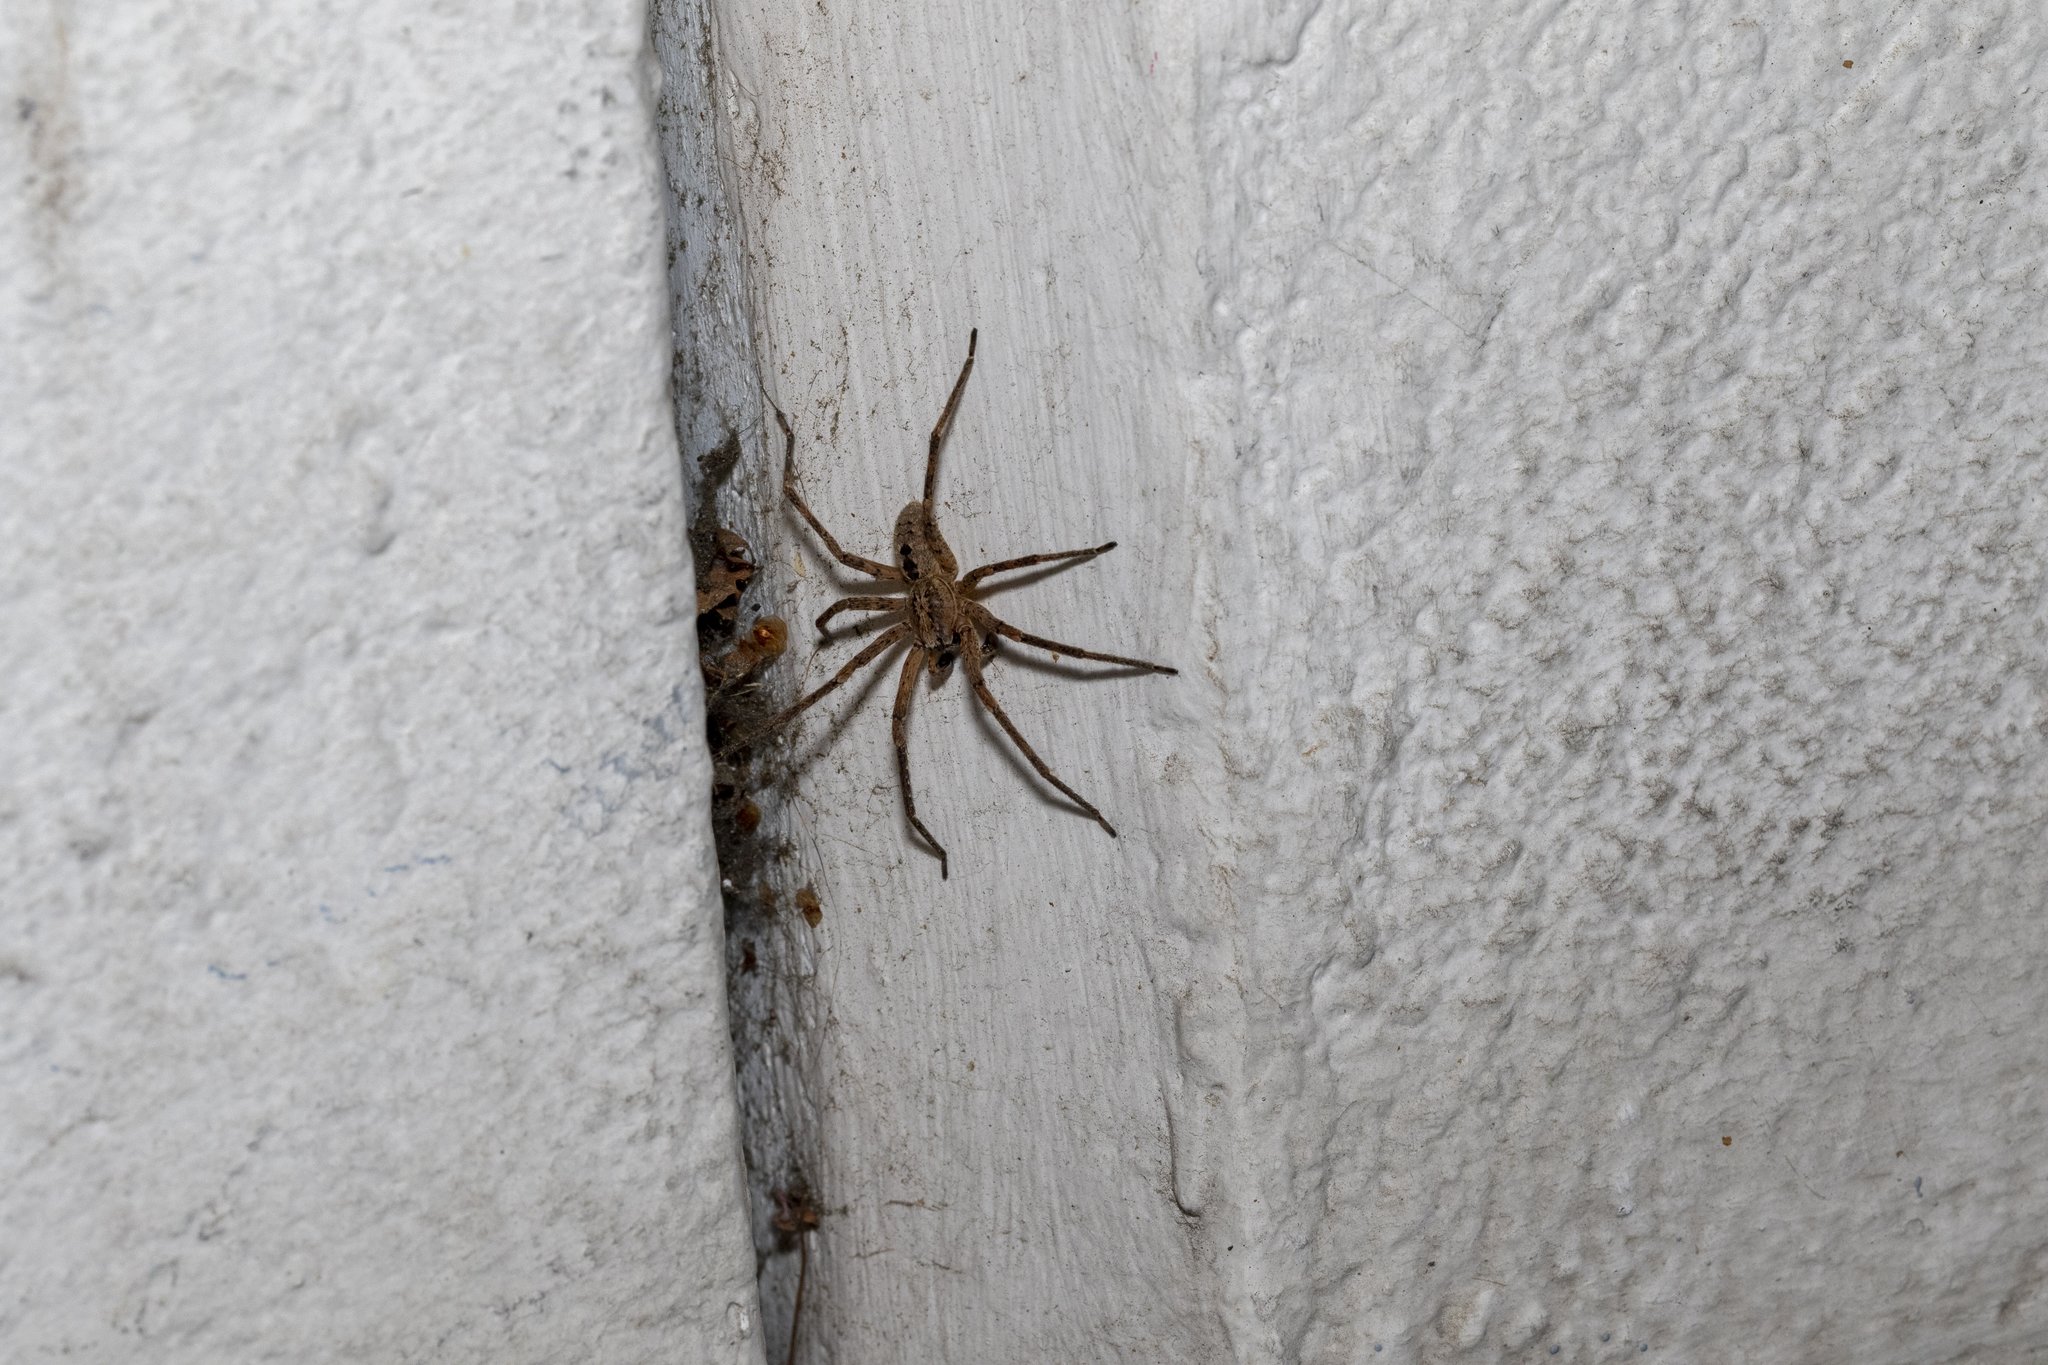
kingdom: Animalia
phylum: Arthropoda
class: Arachnida
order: Araneae
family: Zoropsidae
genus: Zoropsis
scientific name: Zoropsis spinimana
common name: Zoropsid spider
